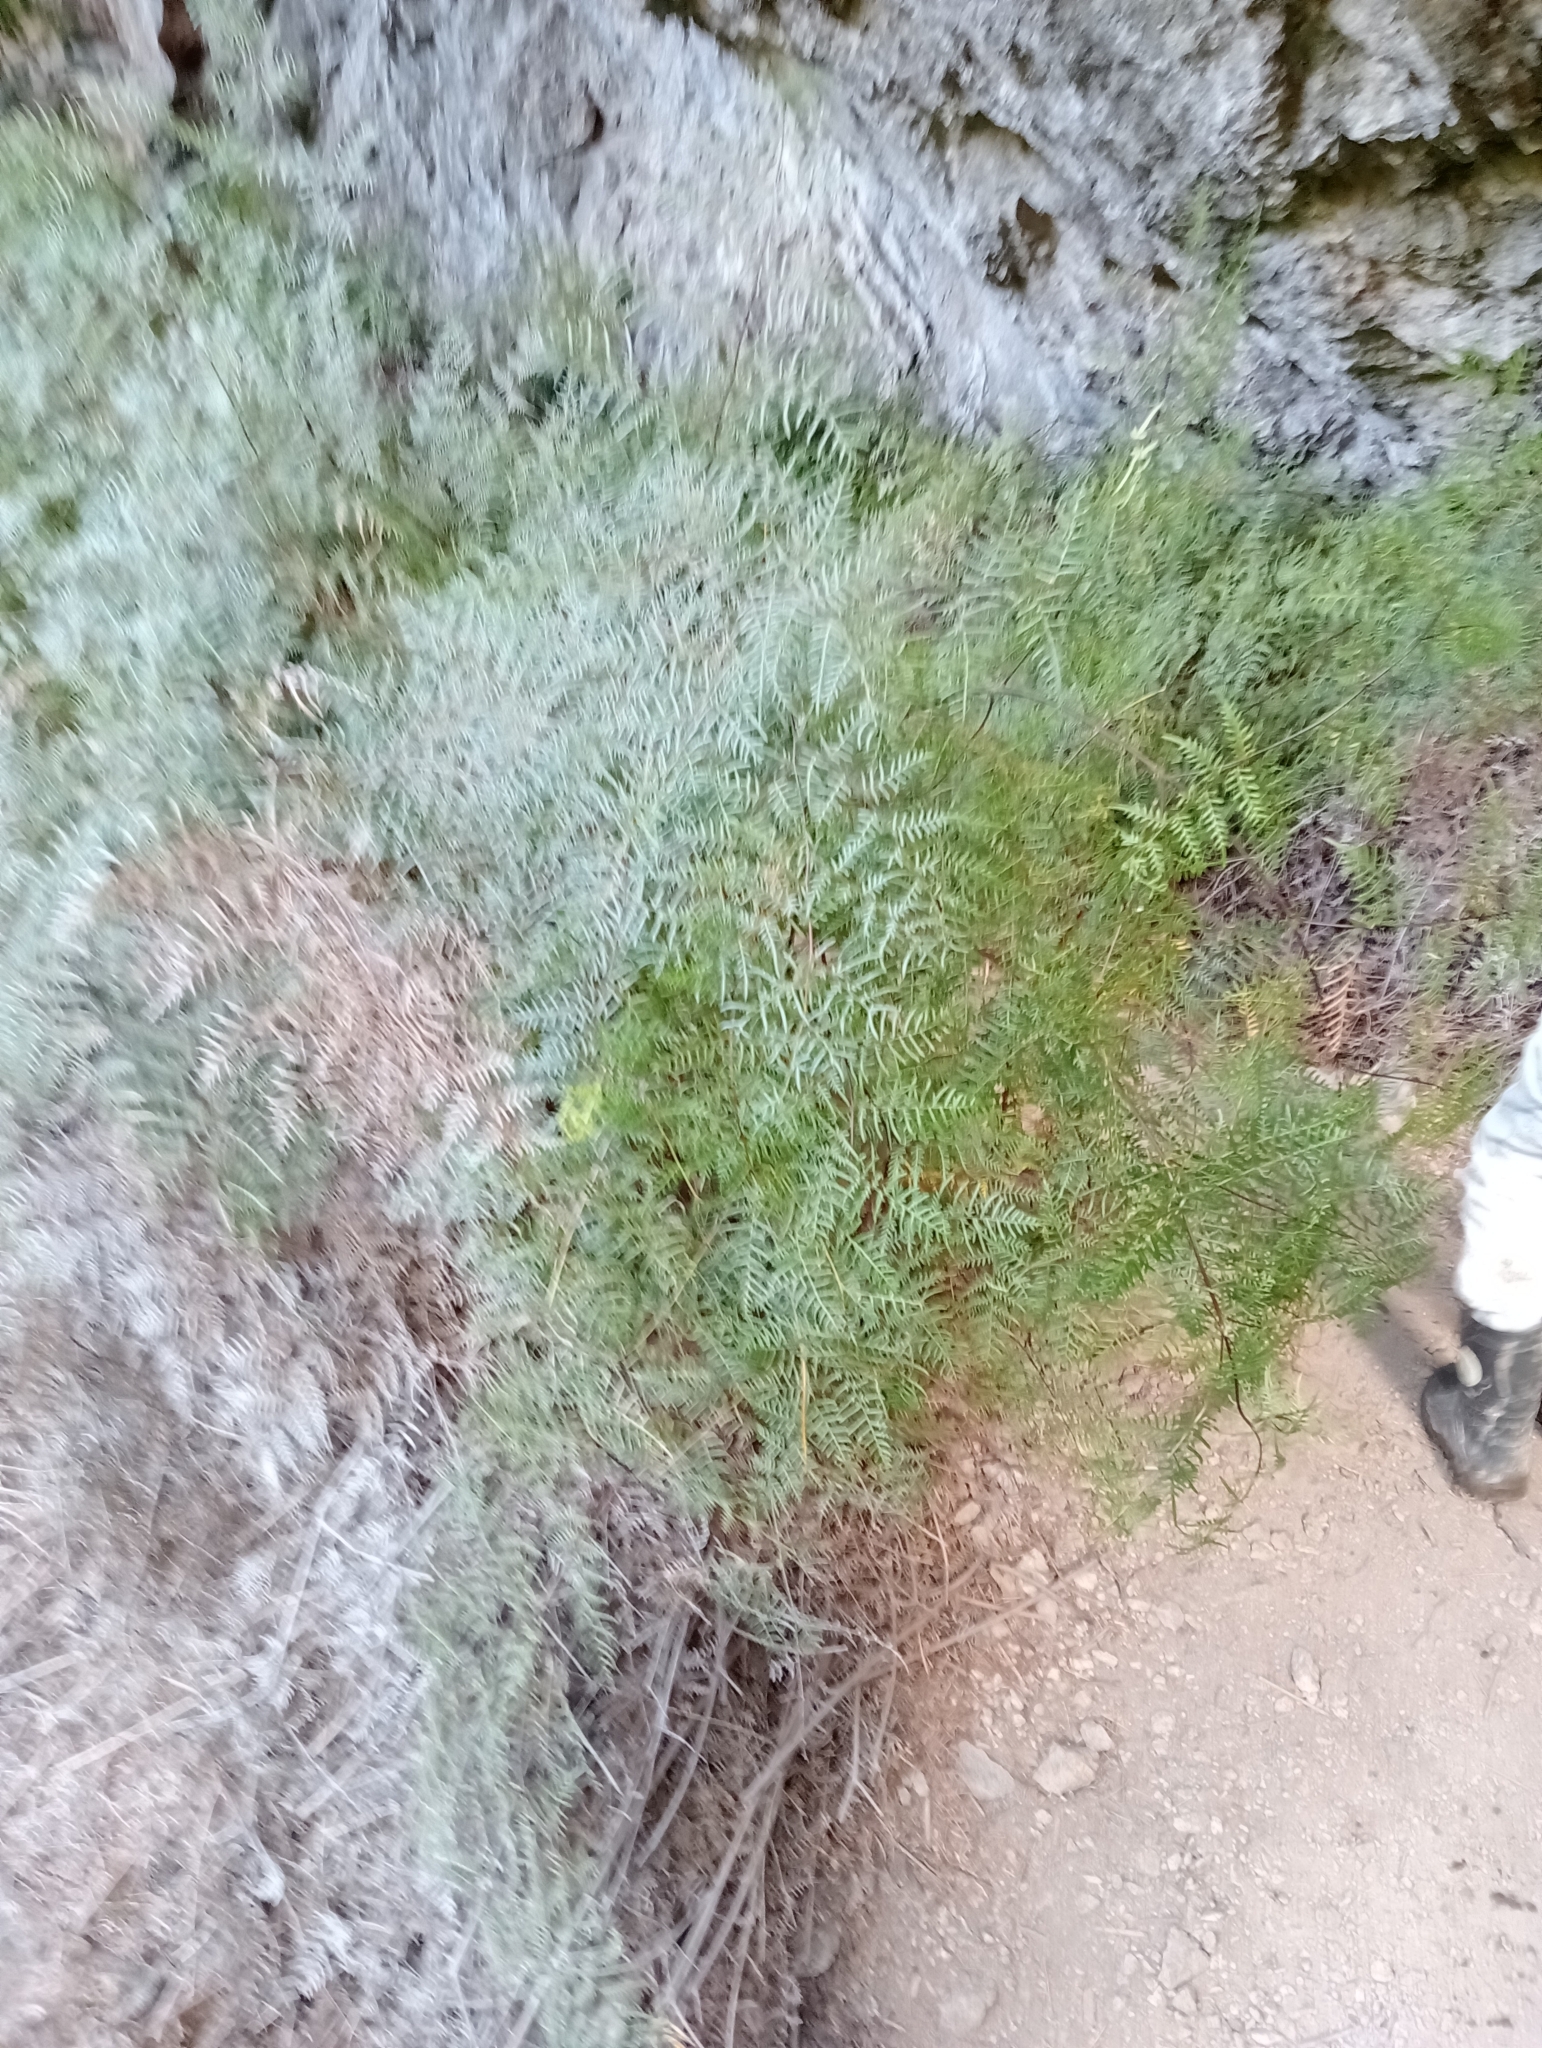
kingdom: Plantae
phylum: Tracheophyta
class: Polypodiopsida
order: Polypodiales
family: Dennstaedtiaceae
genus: Pteridium
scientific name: Pteridium esculentum
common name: Bracken fern
